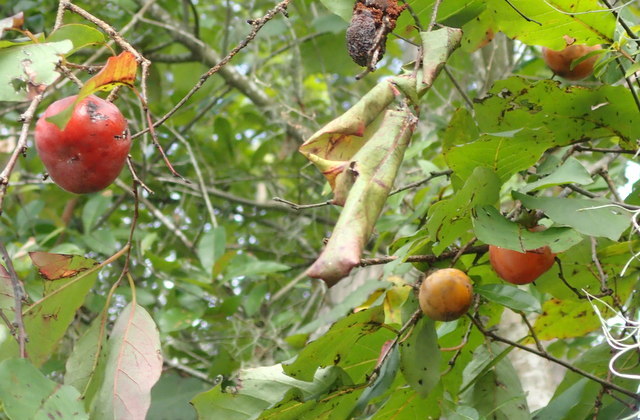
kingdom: Plantae
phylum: Tracheophyta
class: Magnoliopsida
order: Ericales
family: Ebenaceae
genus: Diospyros
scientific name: Diospyros virginiana
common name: Persimmon
